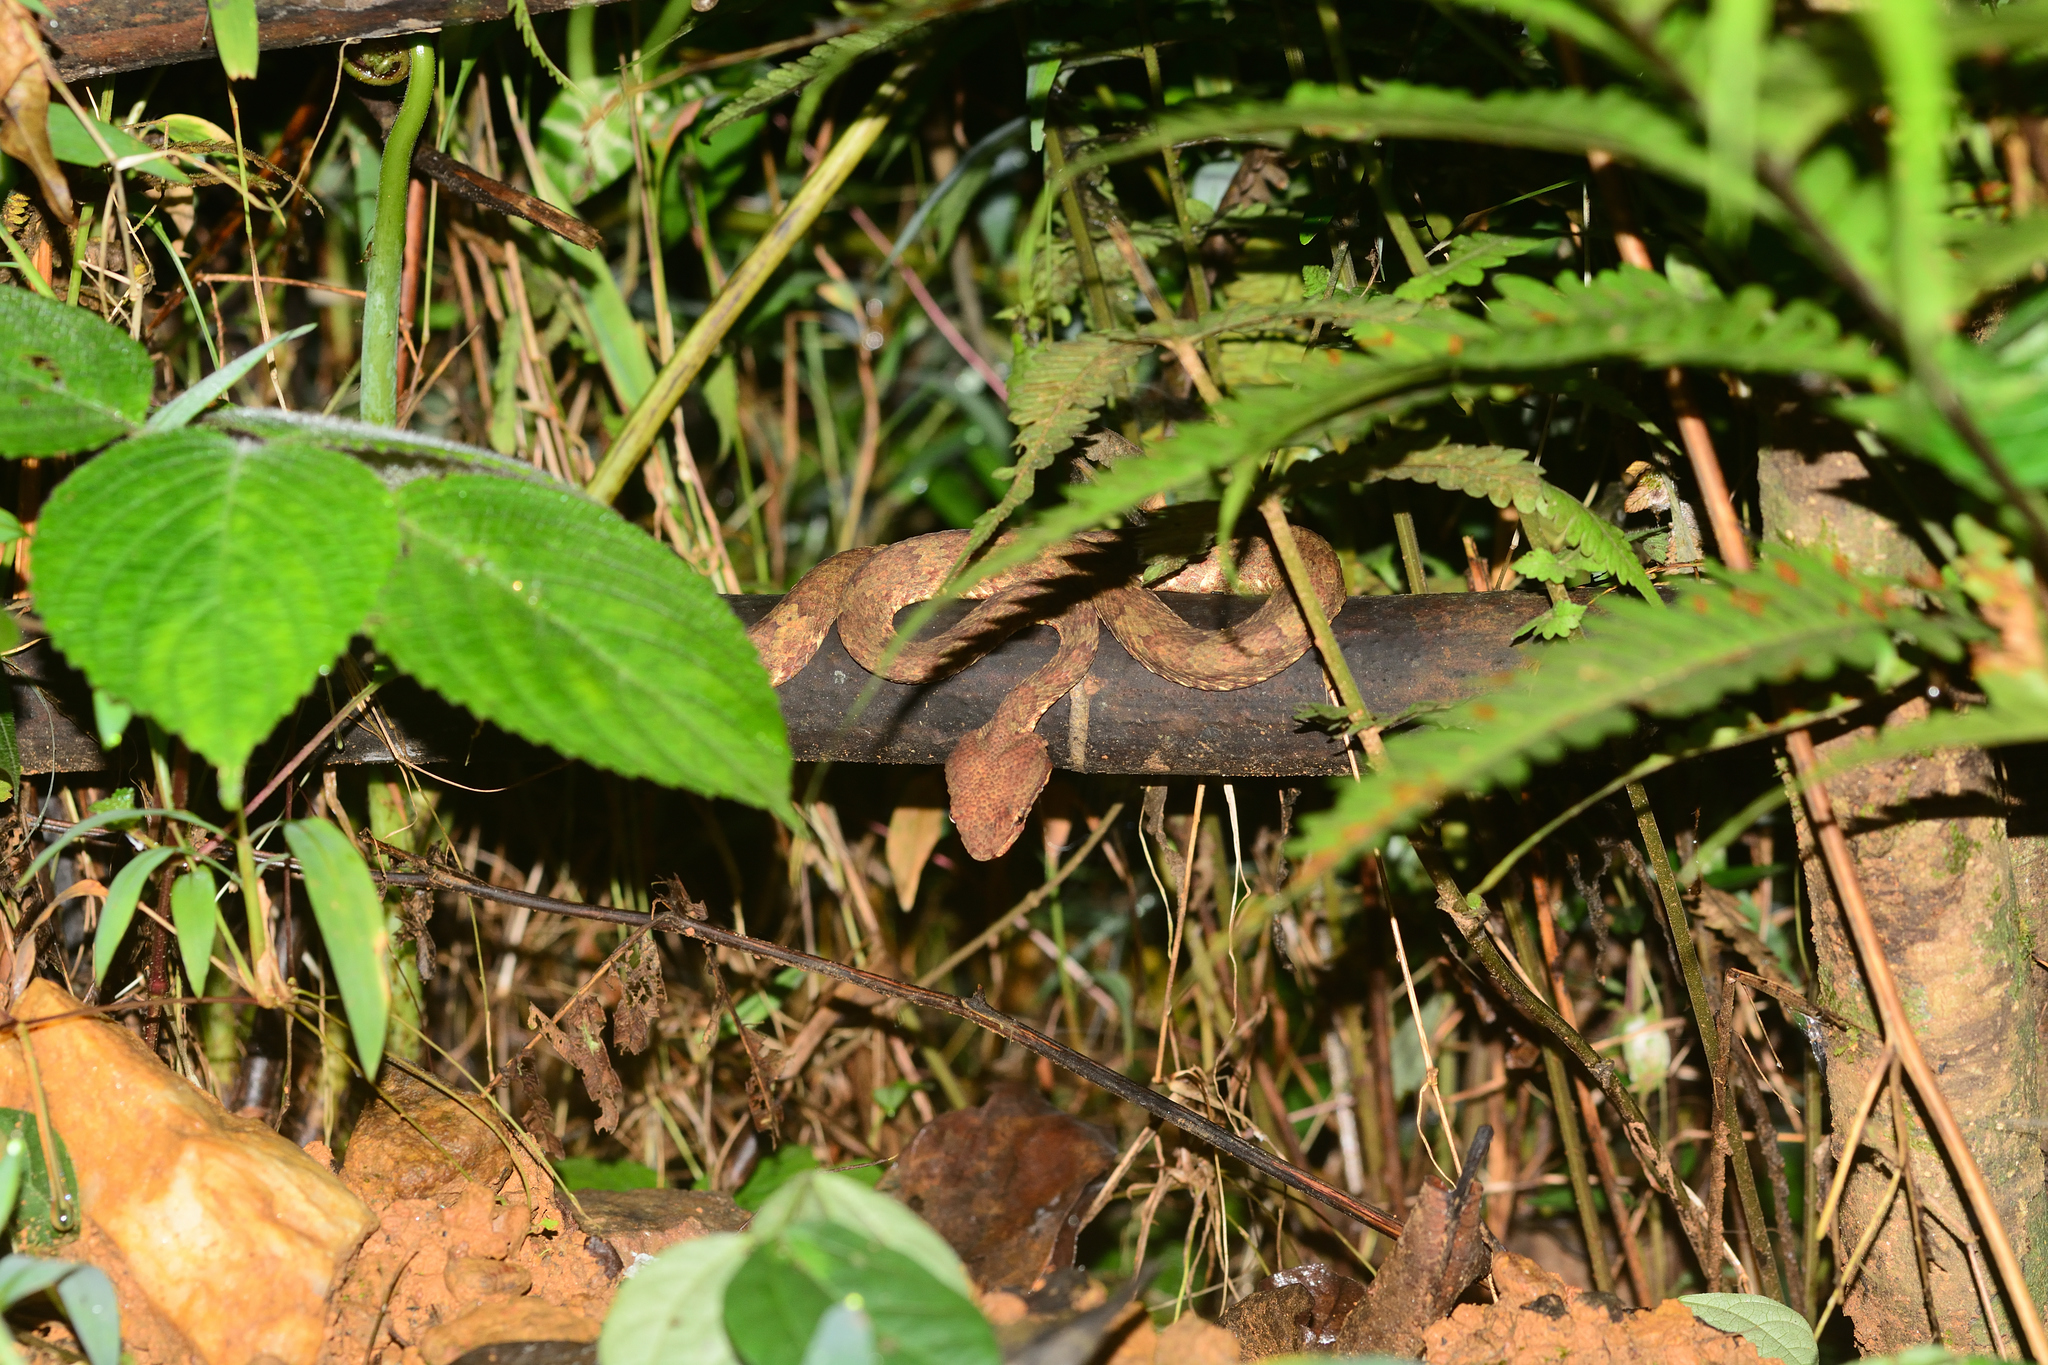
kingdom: Animalia
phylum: Chordata
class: Squamata
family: Viperidae
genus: Craspedocephalus
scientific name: Craspedocephalus malabaricus
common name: Malabarian pit viper
